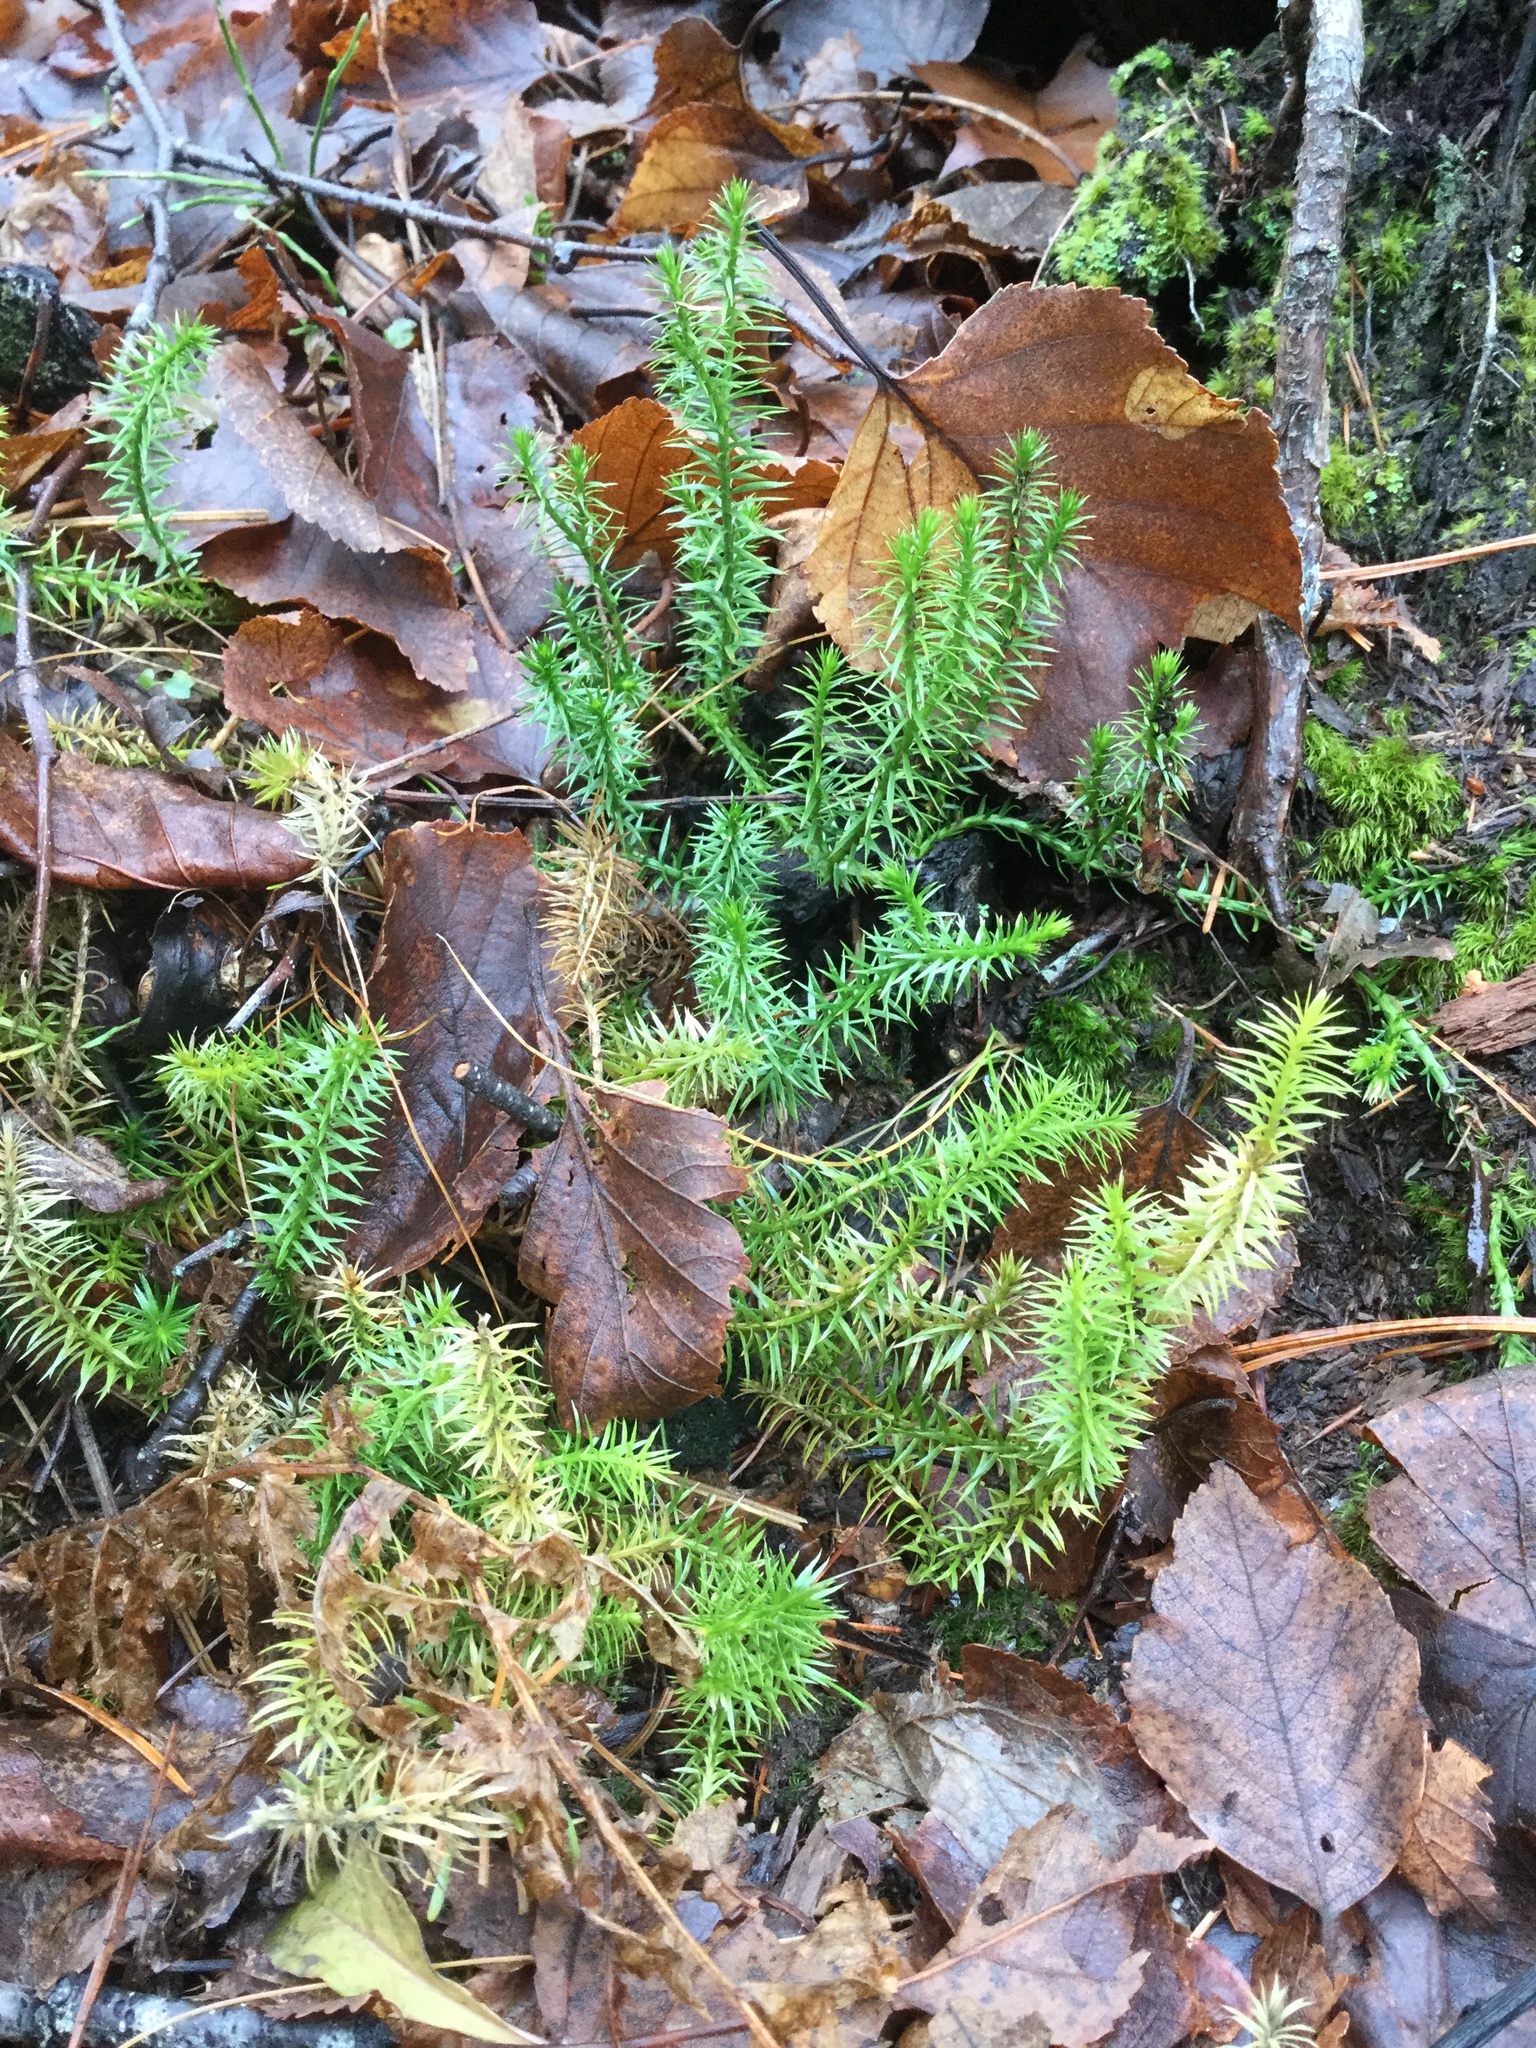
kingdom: Plantae
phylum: Tracheophyta
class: Lycopodiopsida
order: Lycopodiales
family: Lycopodiaceae
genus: Spinulum
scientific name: Spinulum annotinum
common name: Interrupted club-moss
